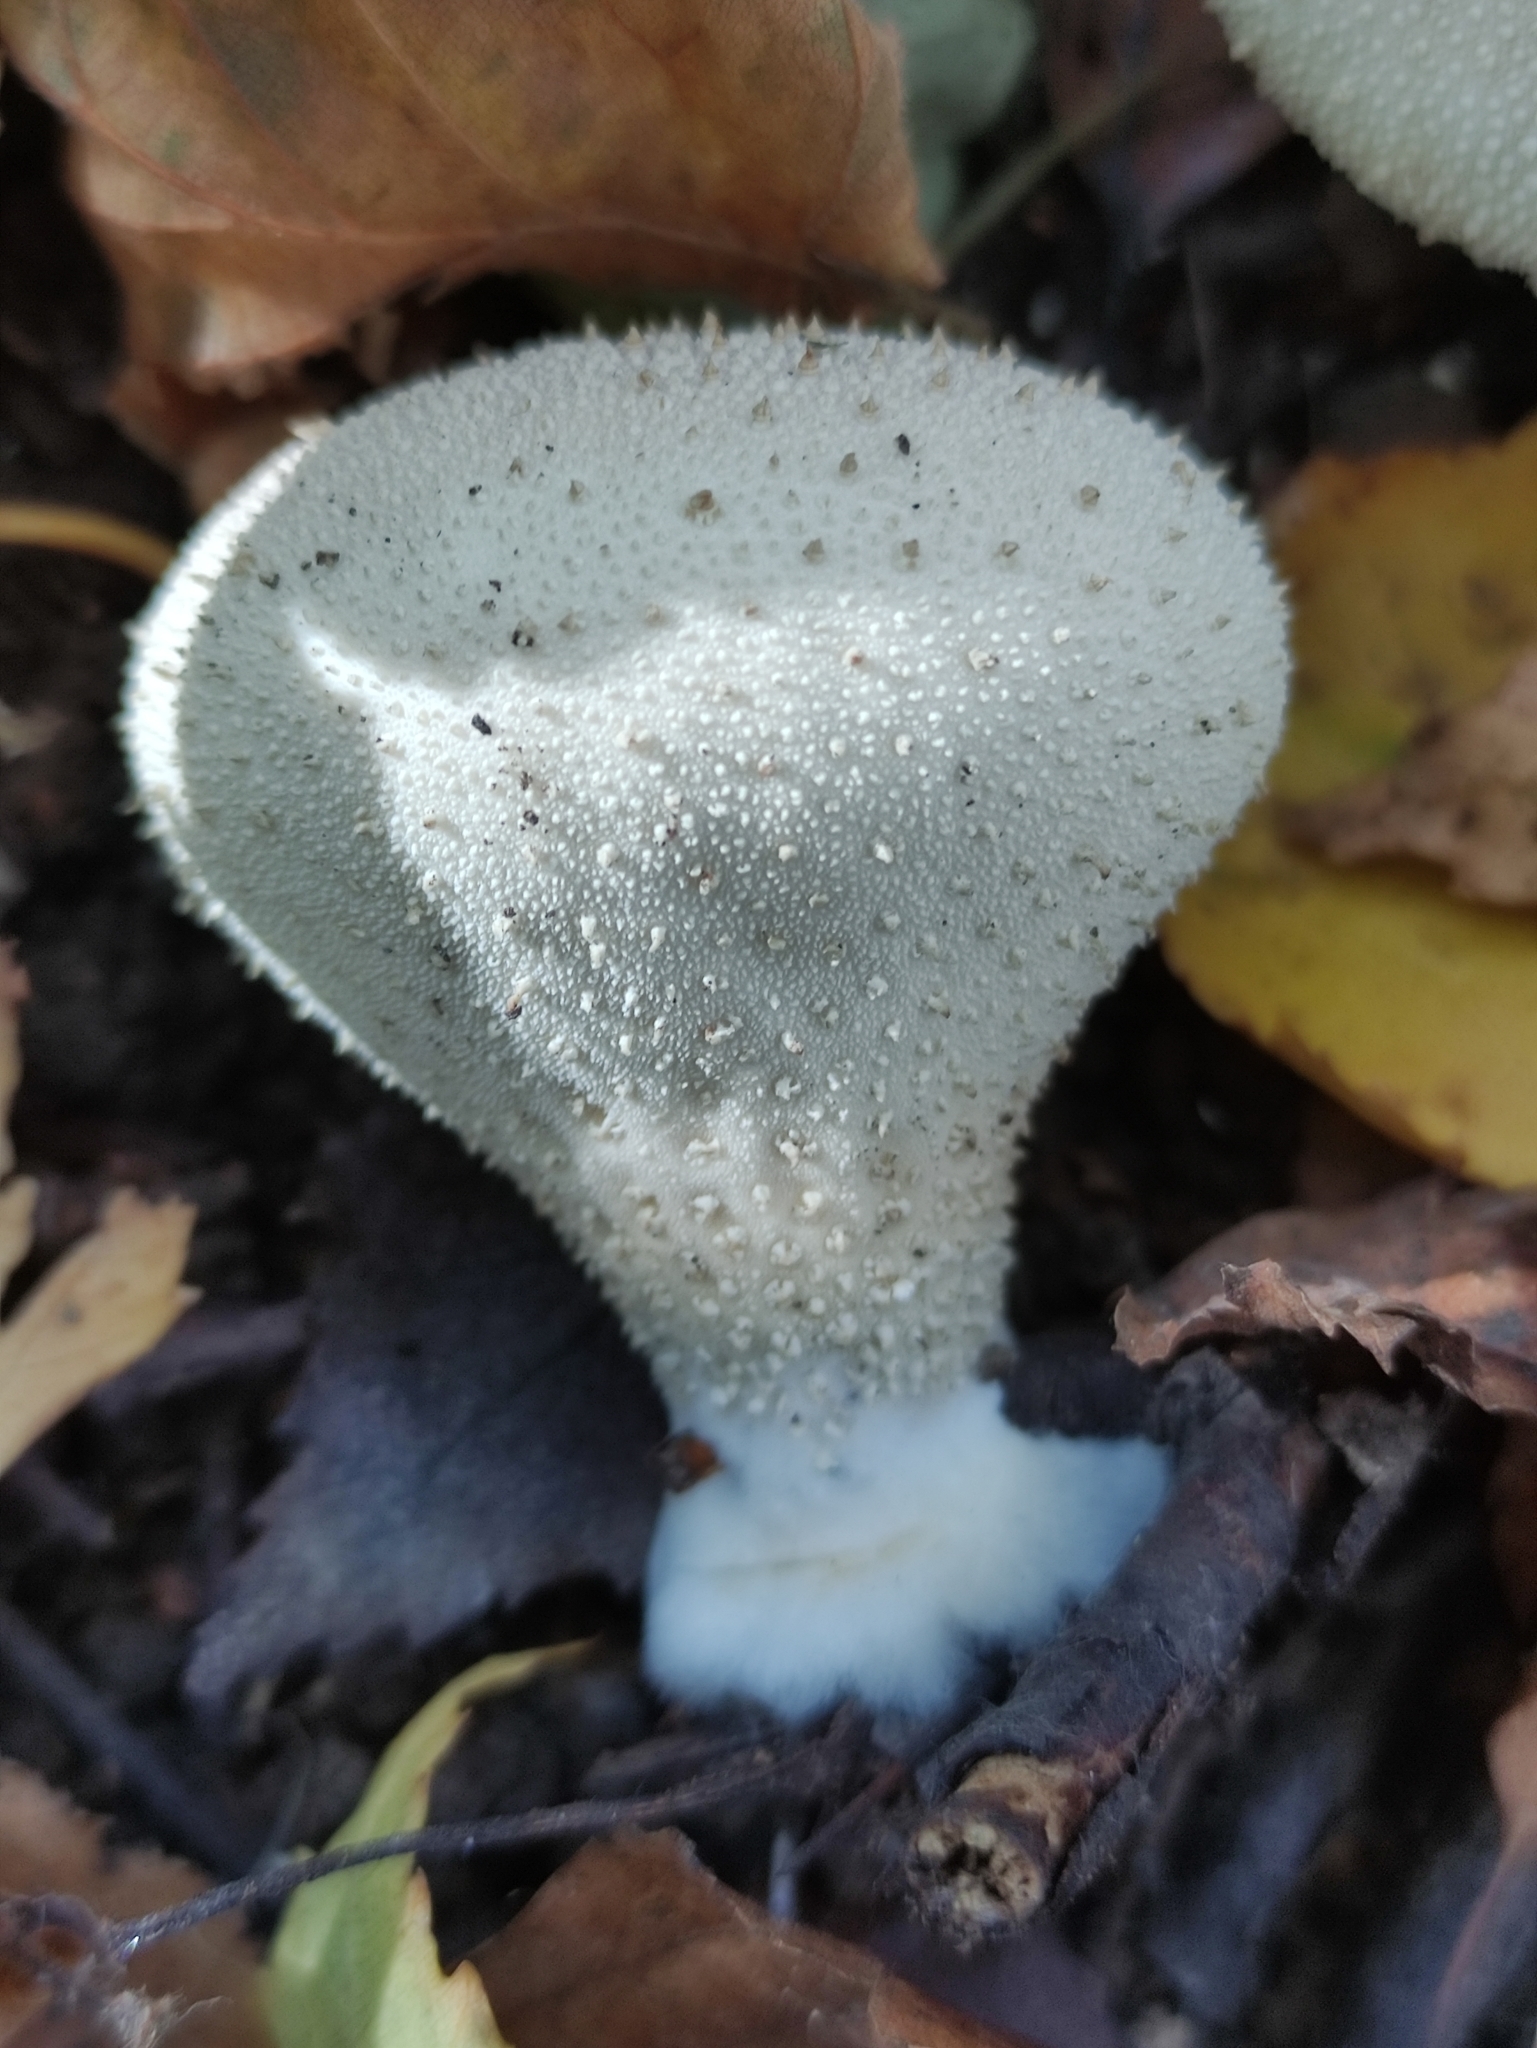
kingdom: Fungi
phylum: Basidiomycota
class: Agaricomycetes
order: Agaricales
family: Lycoperdaceae
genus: Lycoperdon
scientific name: Lycoperdon perlatum
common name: Common puffball
